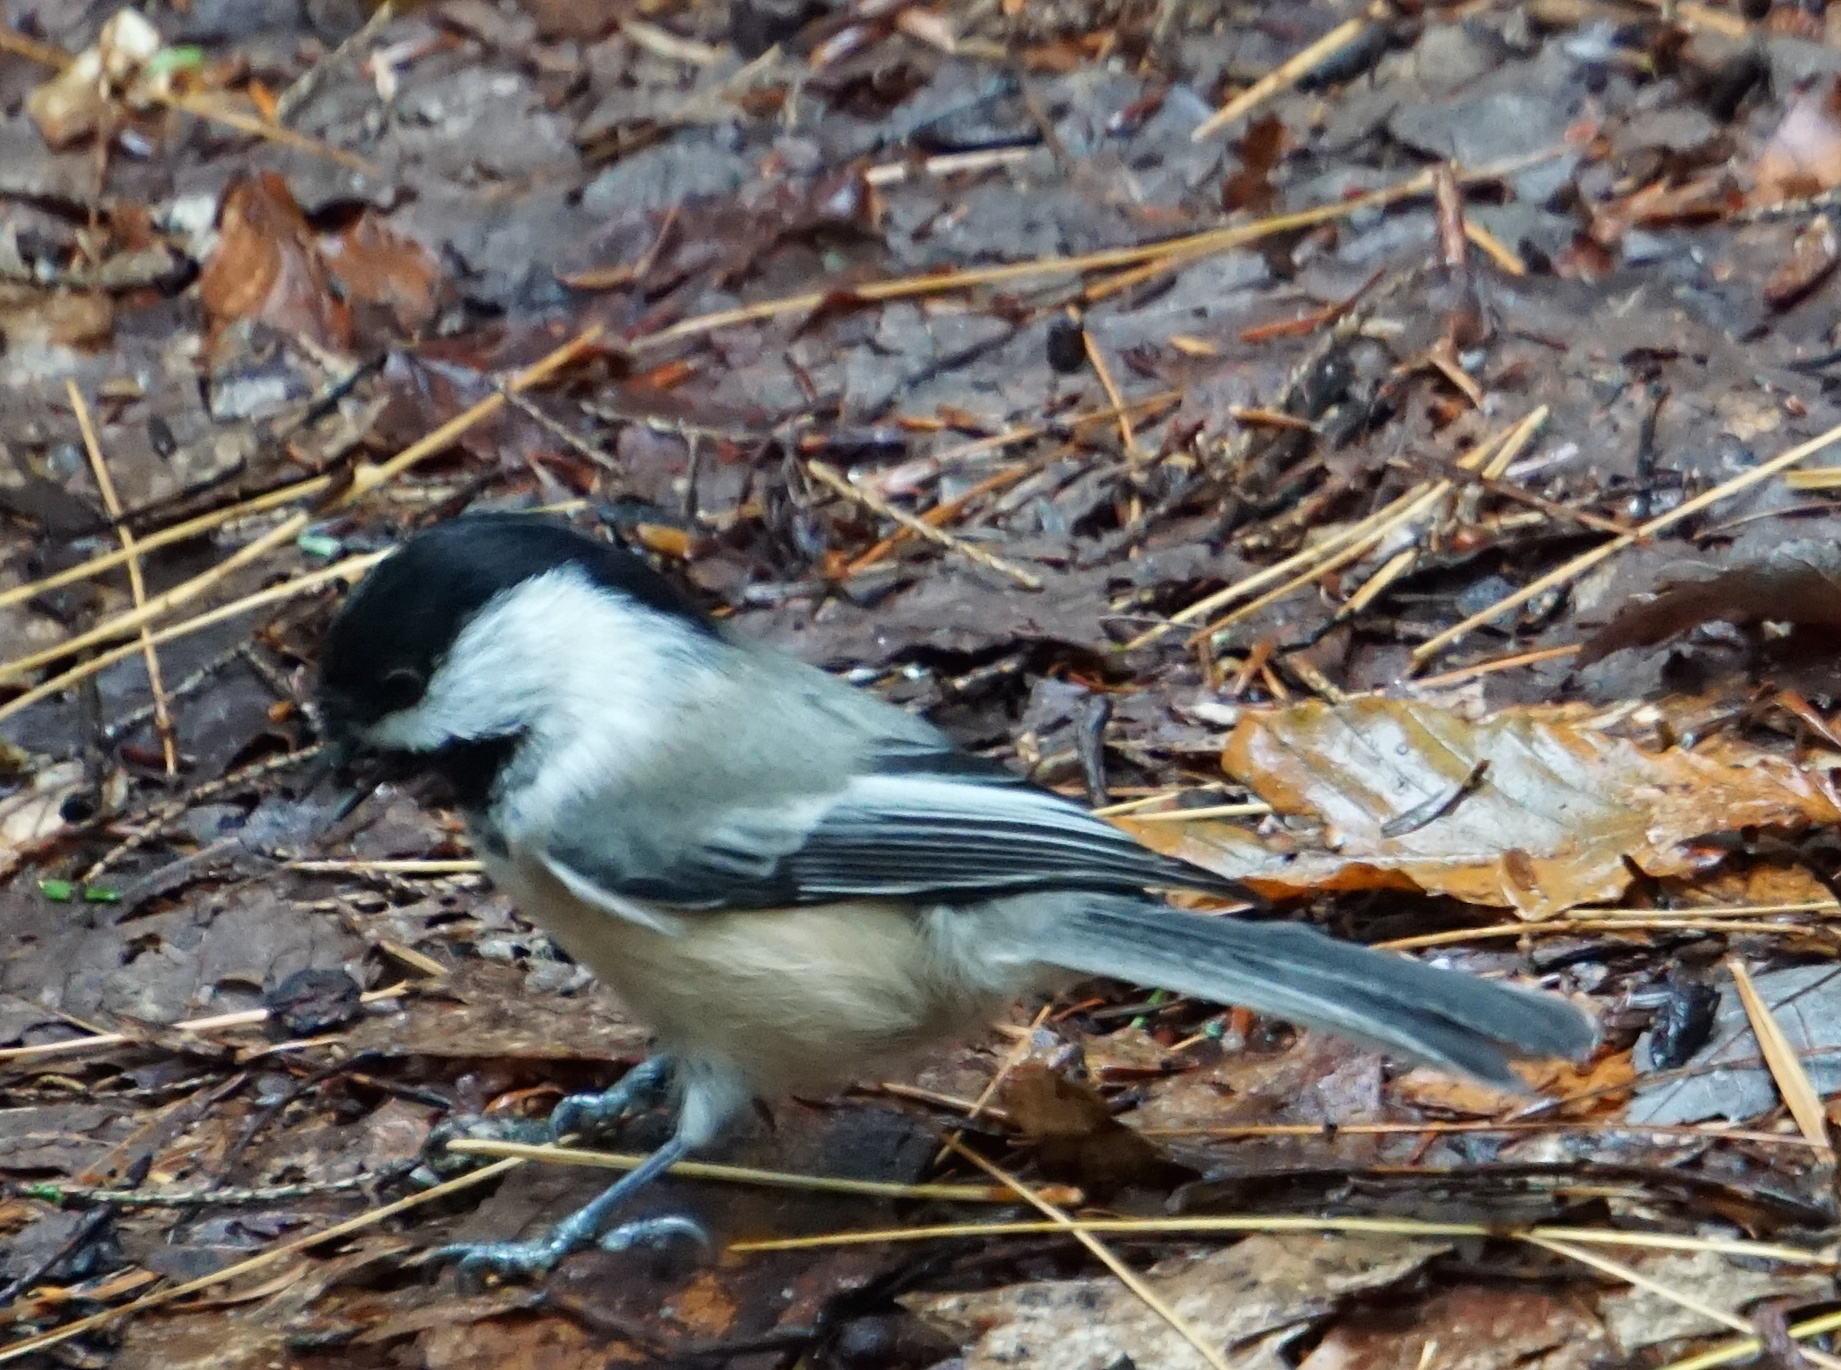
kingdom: Animalia
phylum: Chordata
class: Aves
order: Passeriformes
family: Paridae
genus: Poecile
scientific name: Poecile atricapillus
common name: Black-capped chickadee
